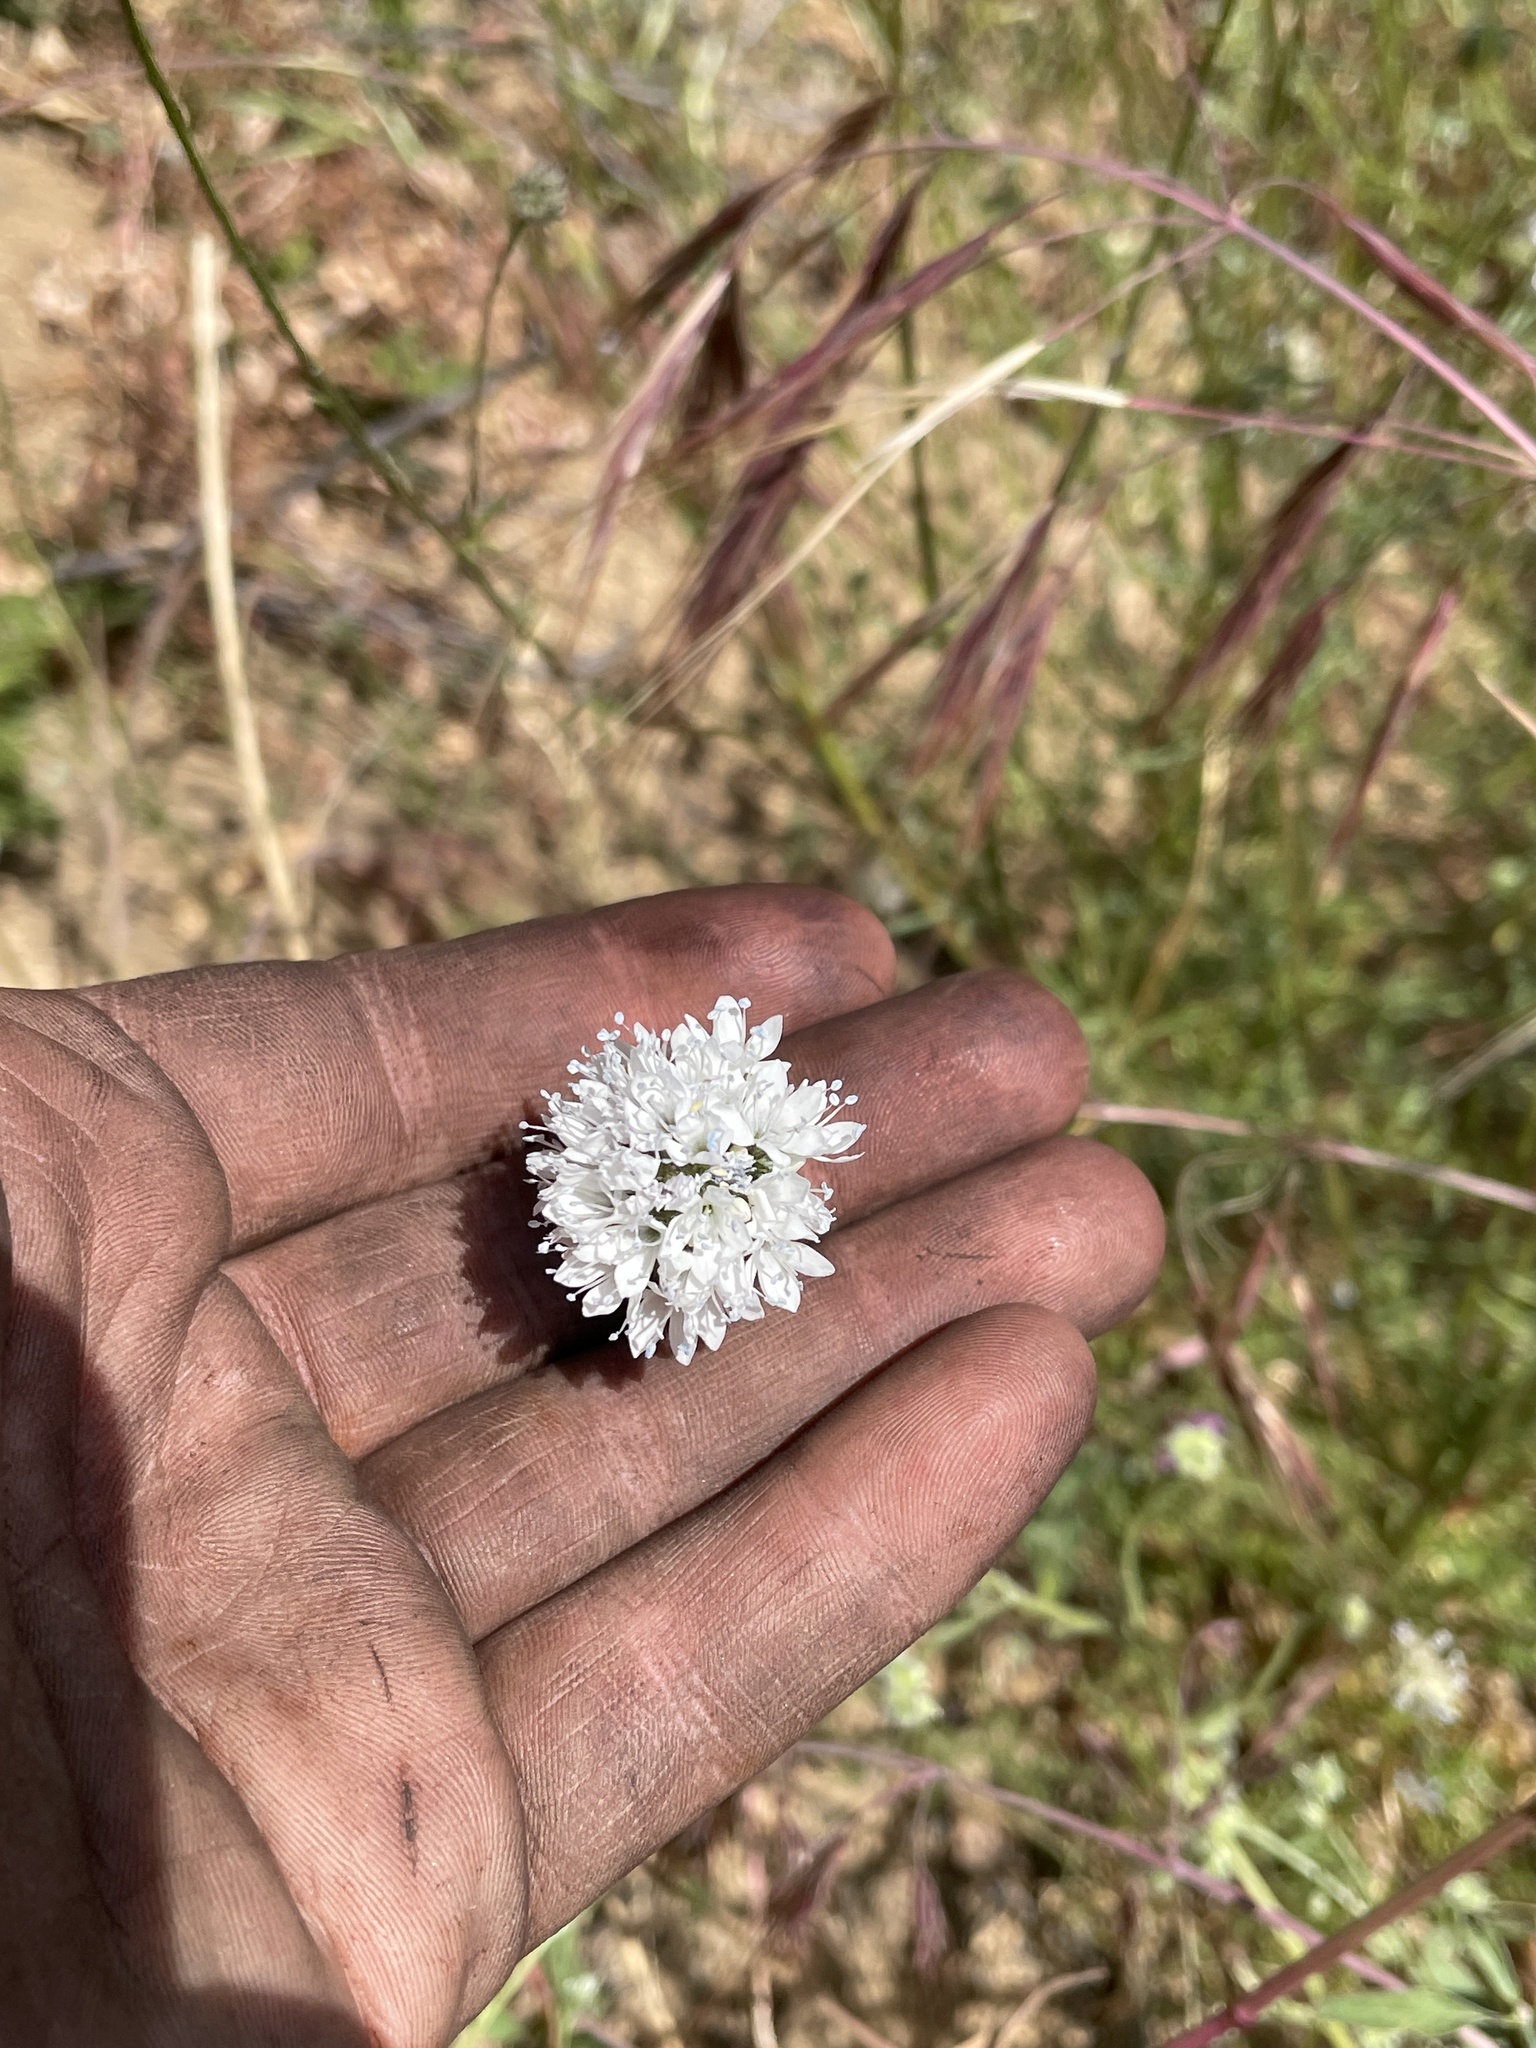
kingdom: Plantae
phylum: Tracheophyta
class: Magnoliopsida
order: Ericales
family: Polemoniaceae
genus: Gilia
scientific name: Gilia capitata
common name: Bluehead gilia
